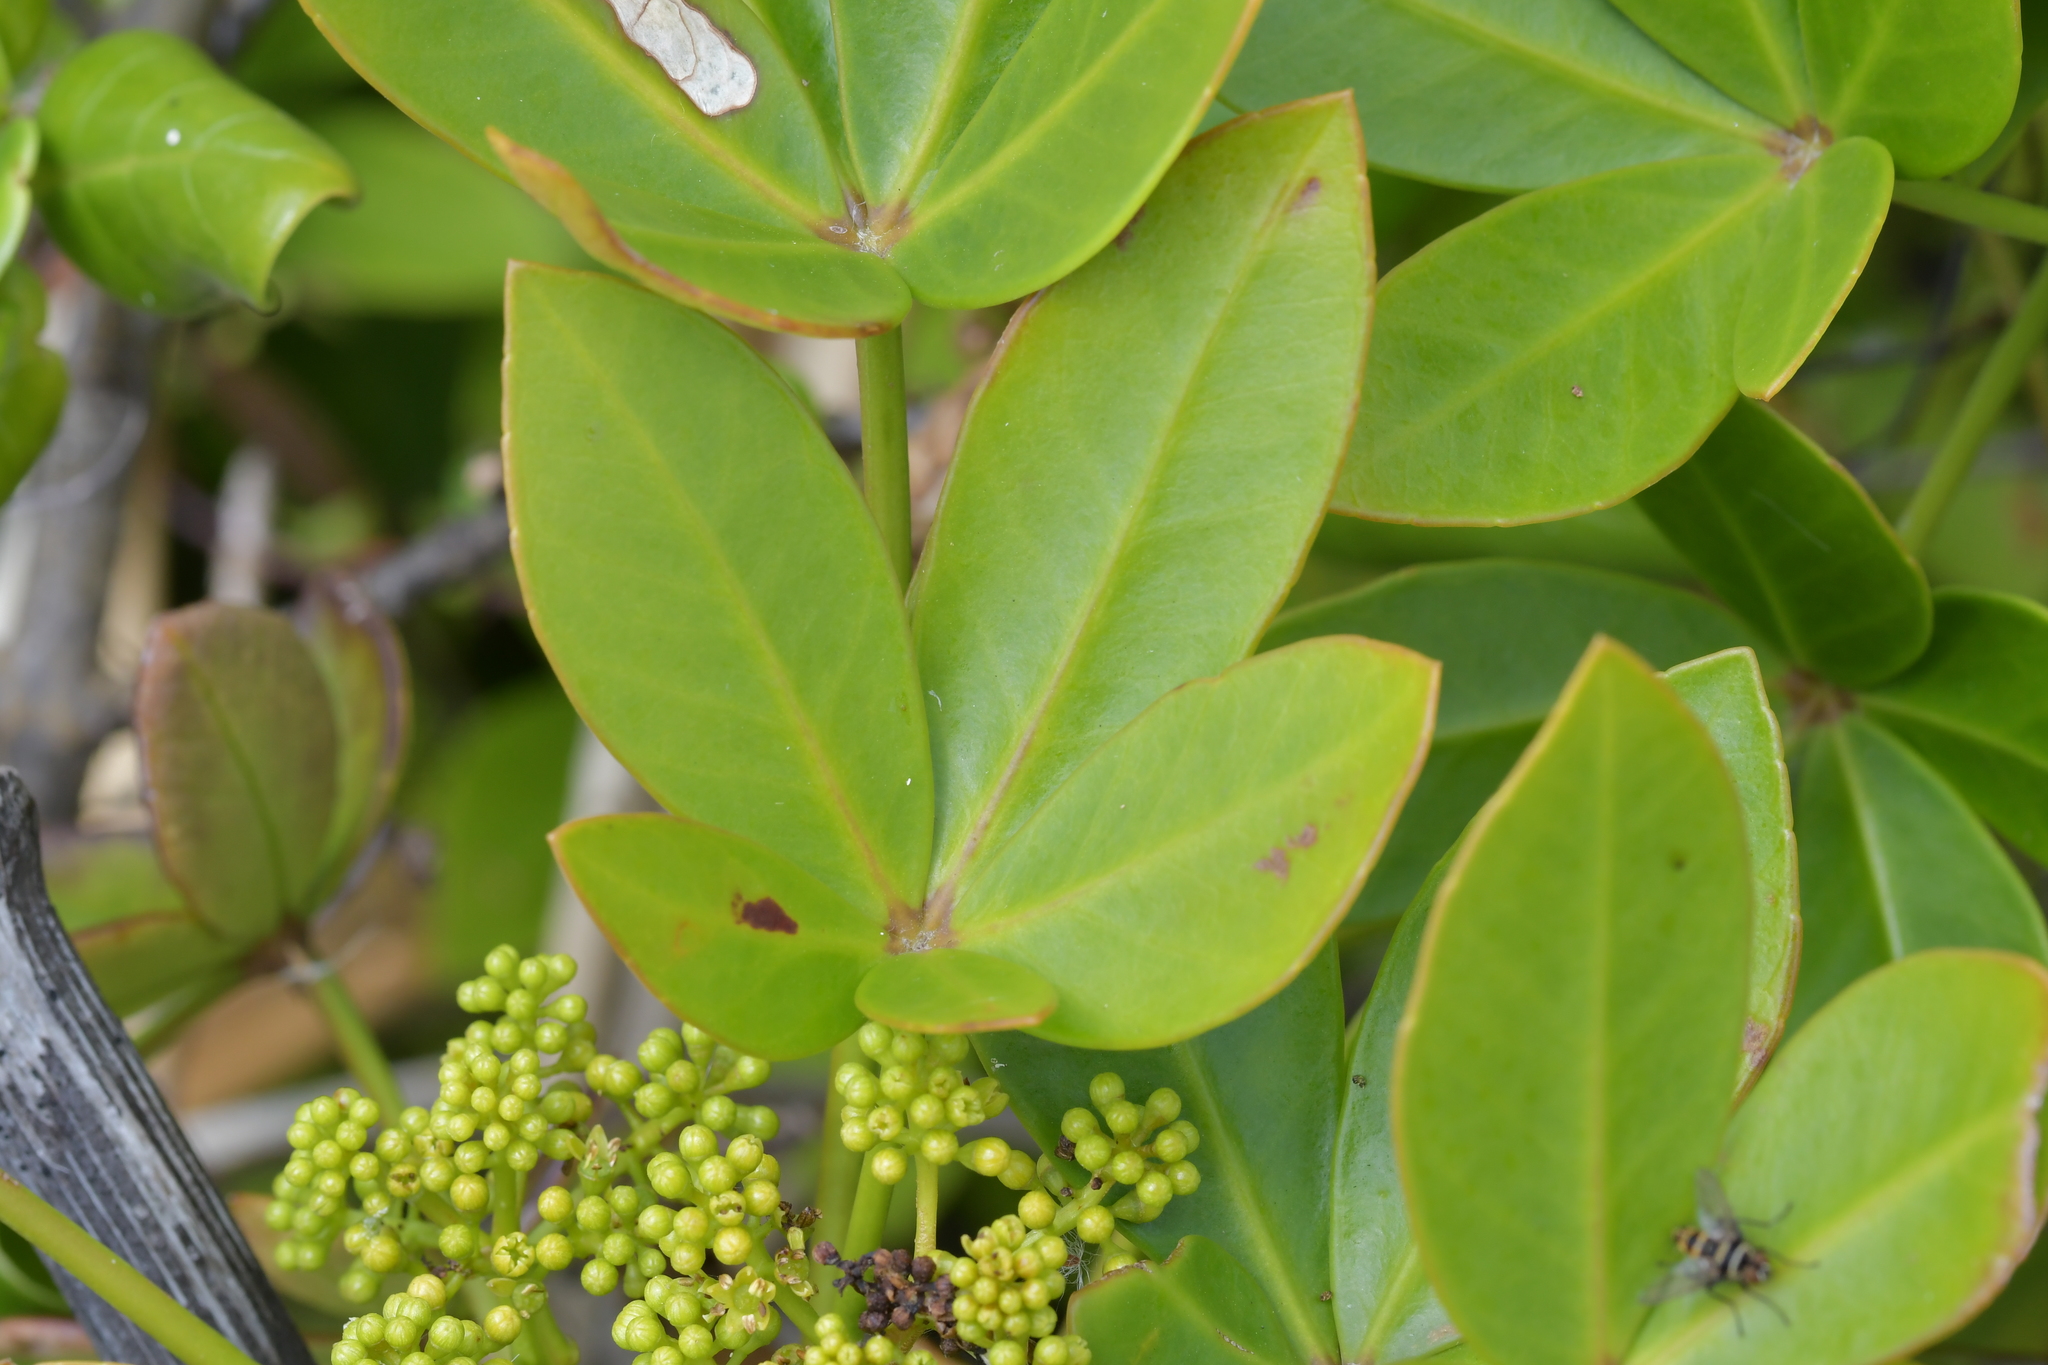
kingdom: Plantae
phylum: Tracheophyta
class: Magnoliopsida
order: Apiales
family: Araliaceae
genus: Pseudopanax
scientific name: Pseudopanax lessonii
